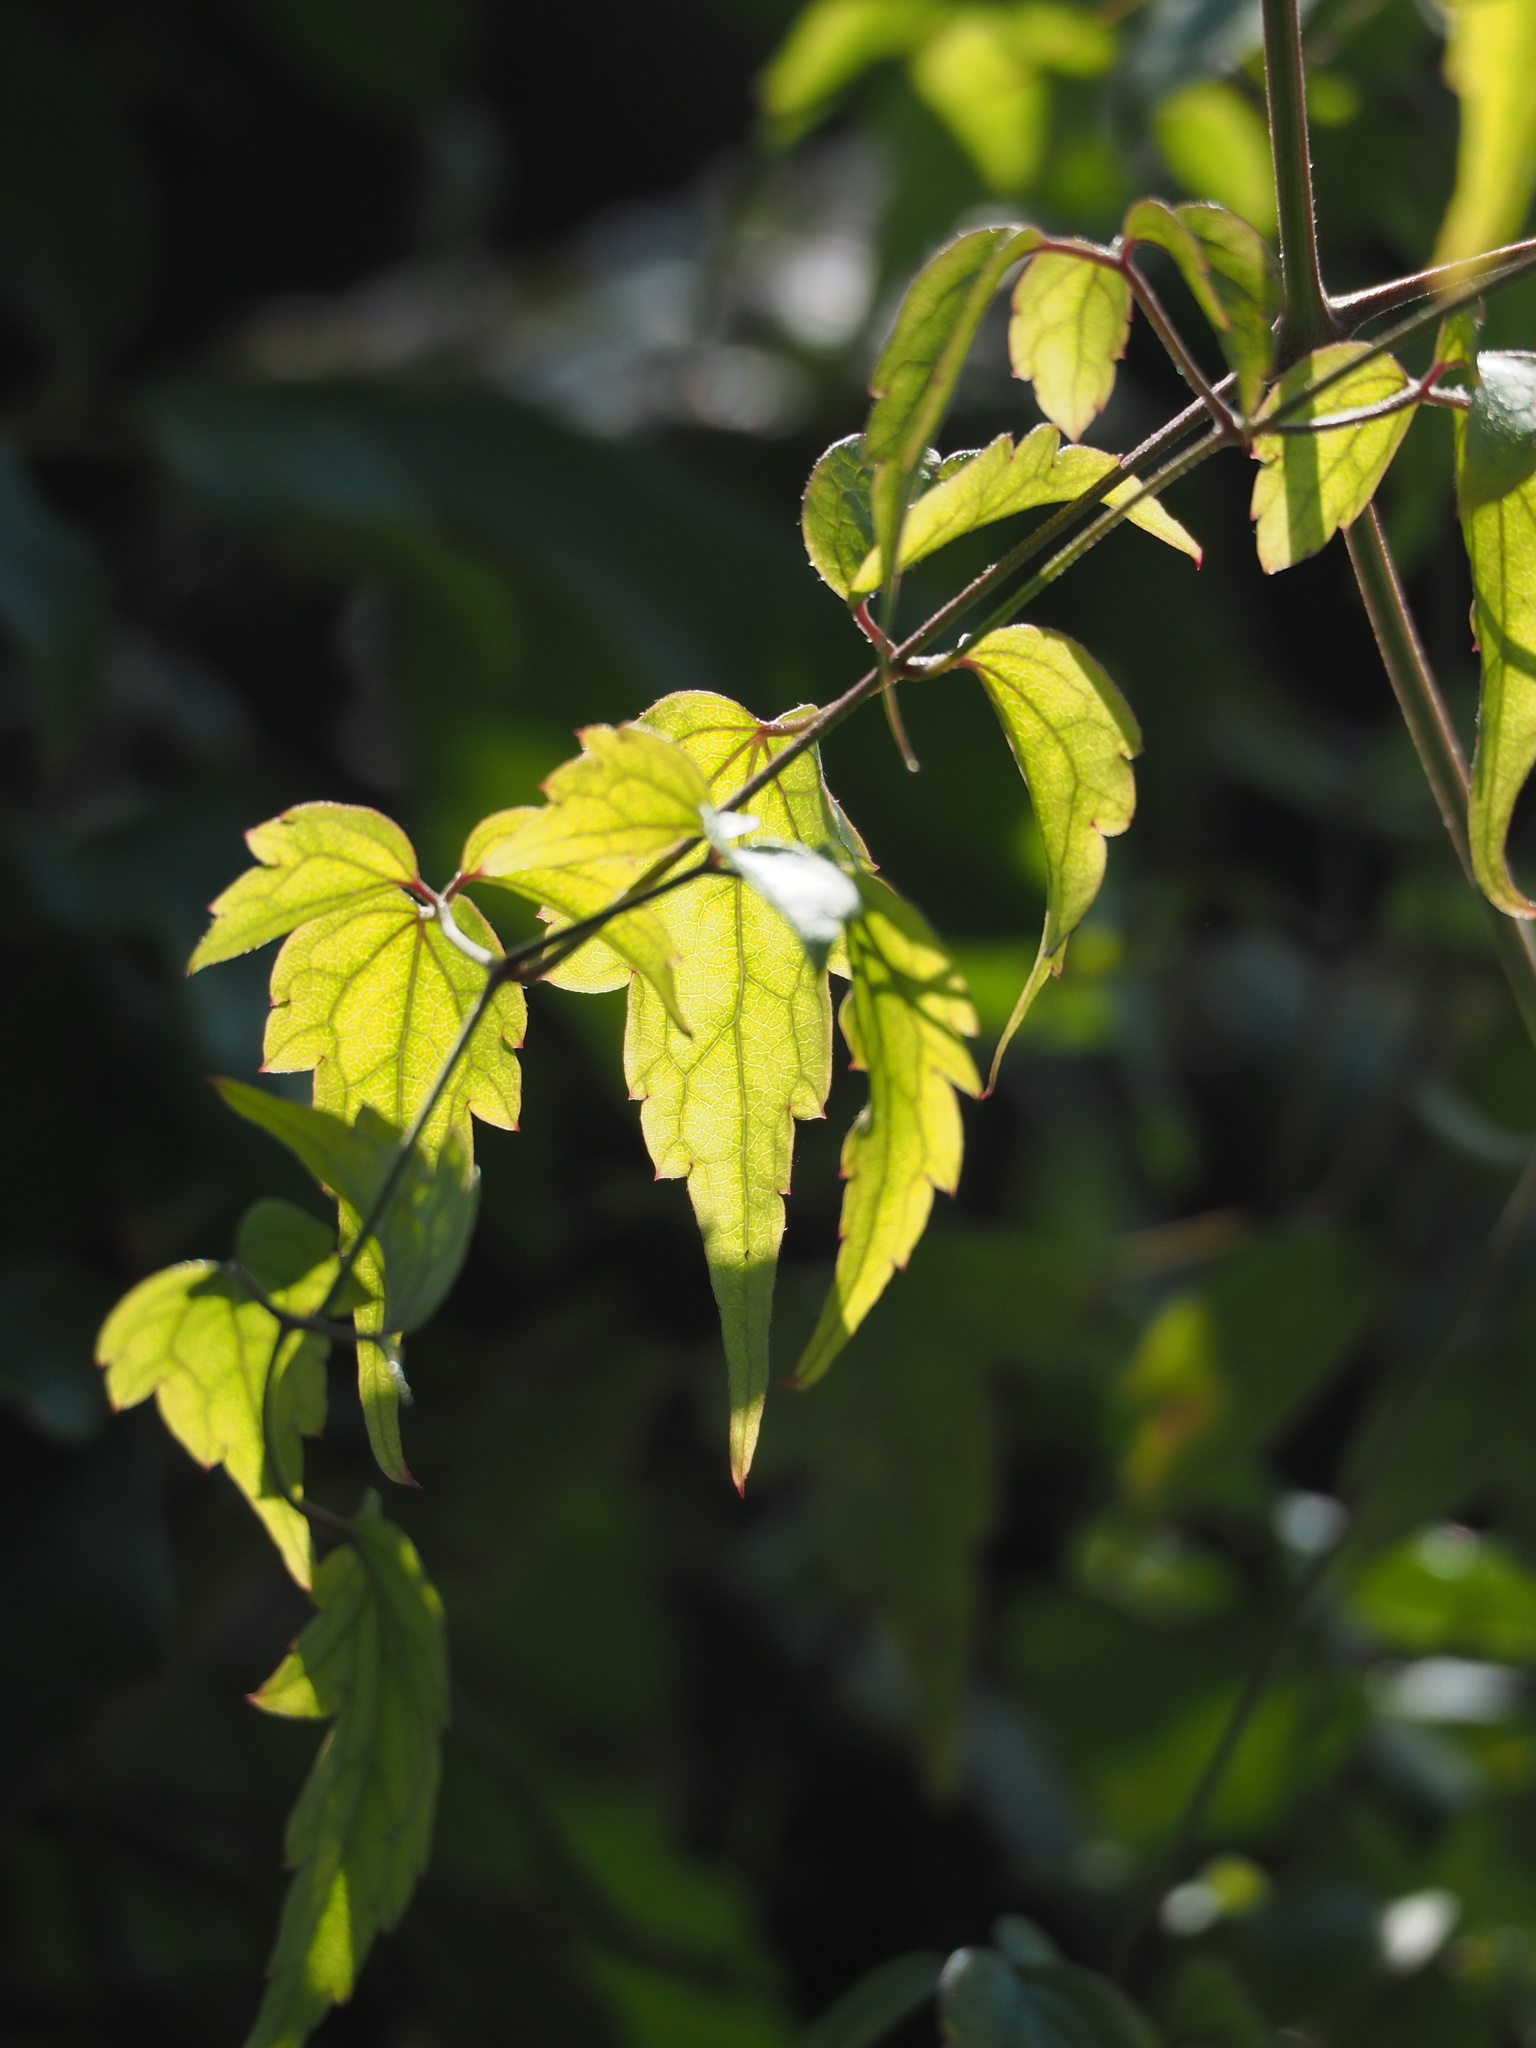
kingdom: Plantae
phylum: Tracheophyta
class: Magnoliopsida
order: Ranunculales
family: Ranunculaceae
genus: Clematis
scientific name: Clematis grata
